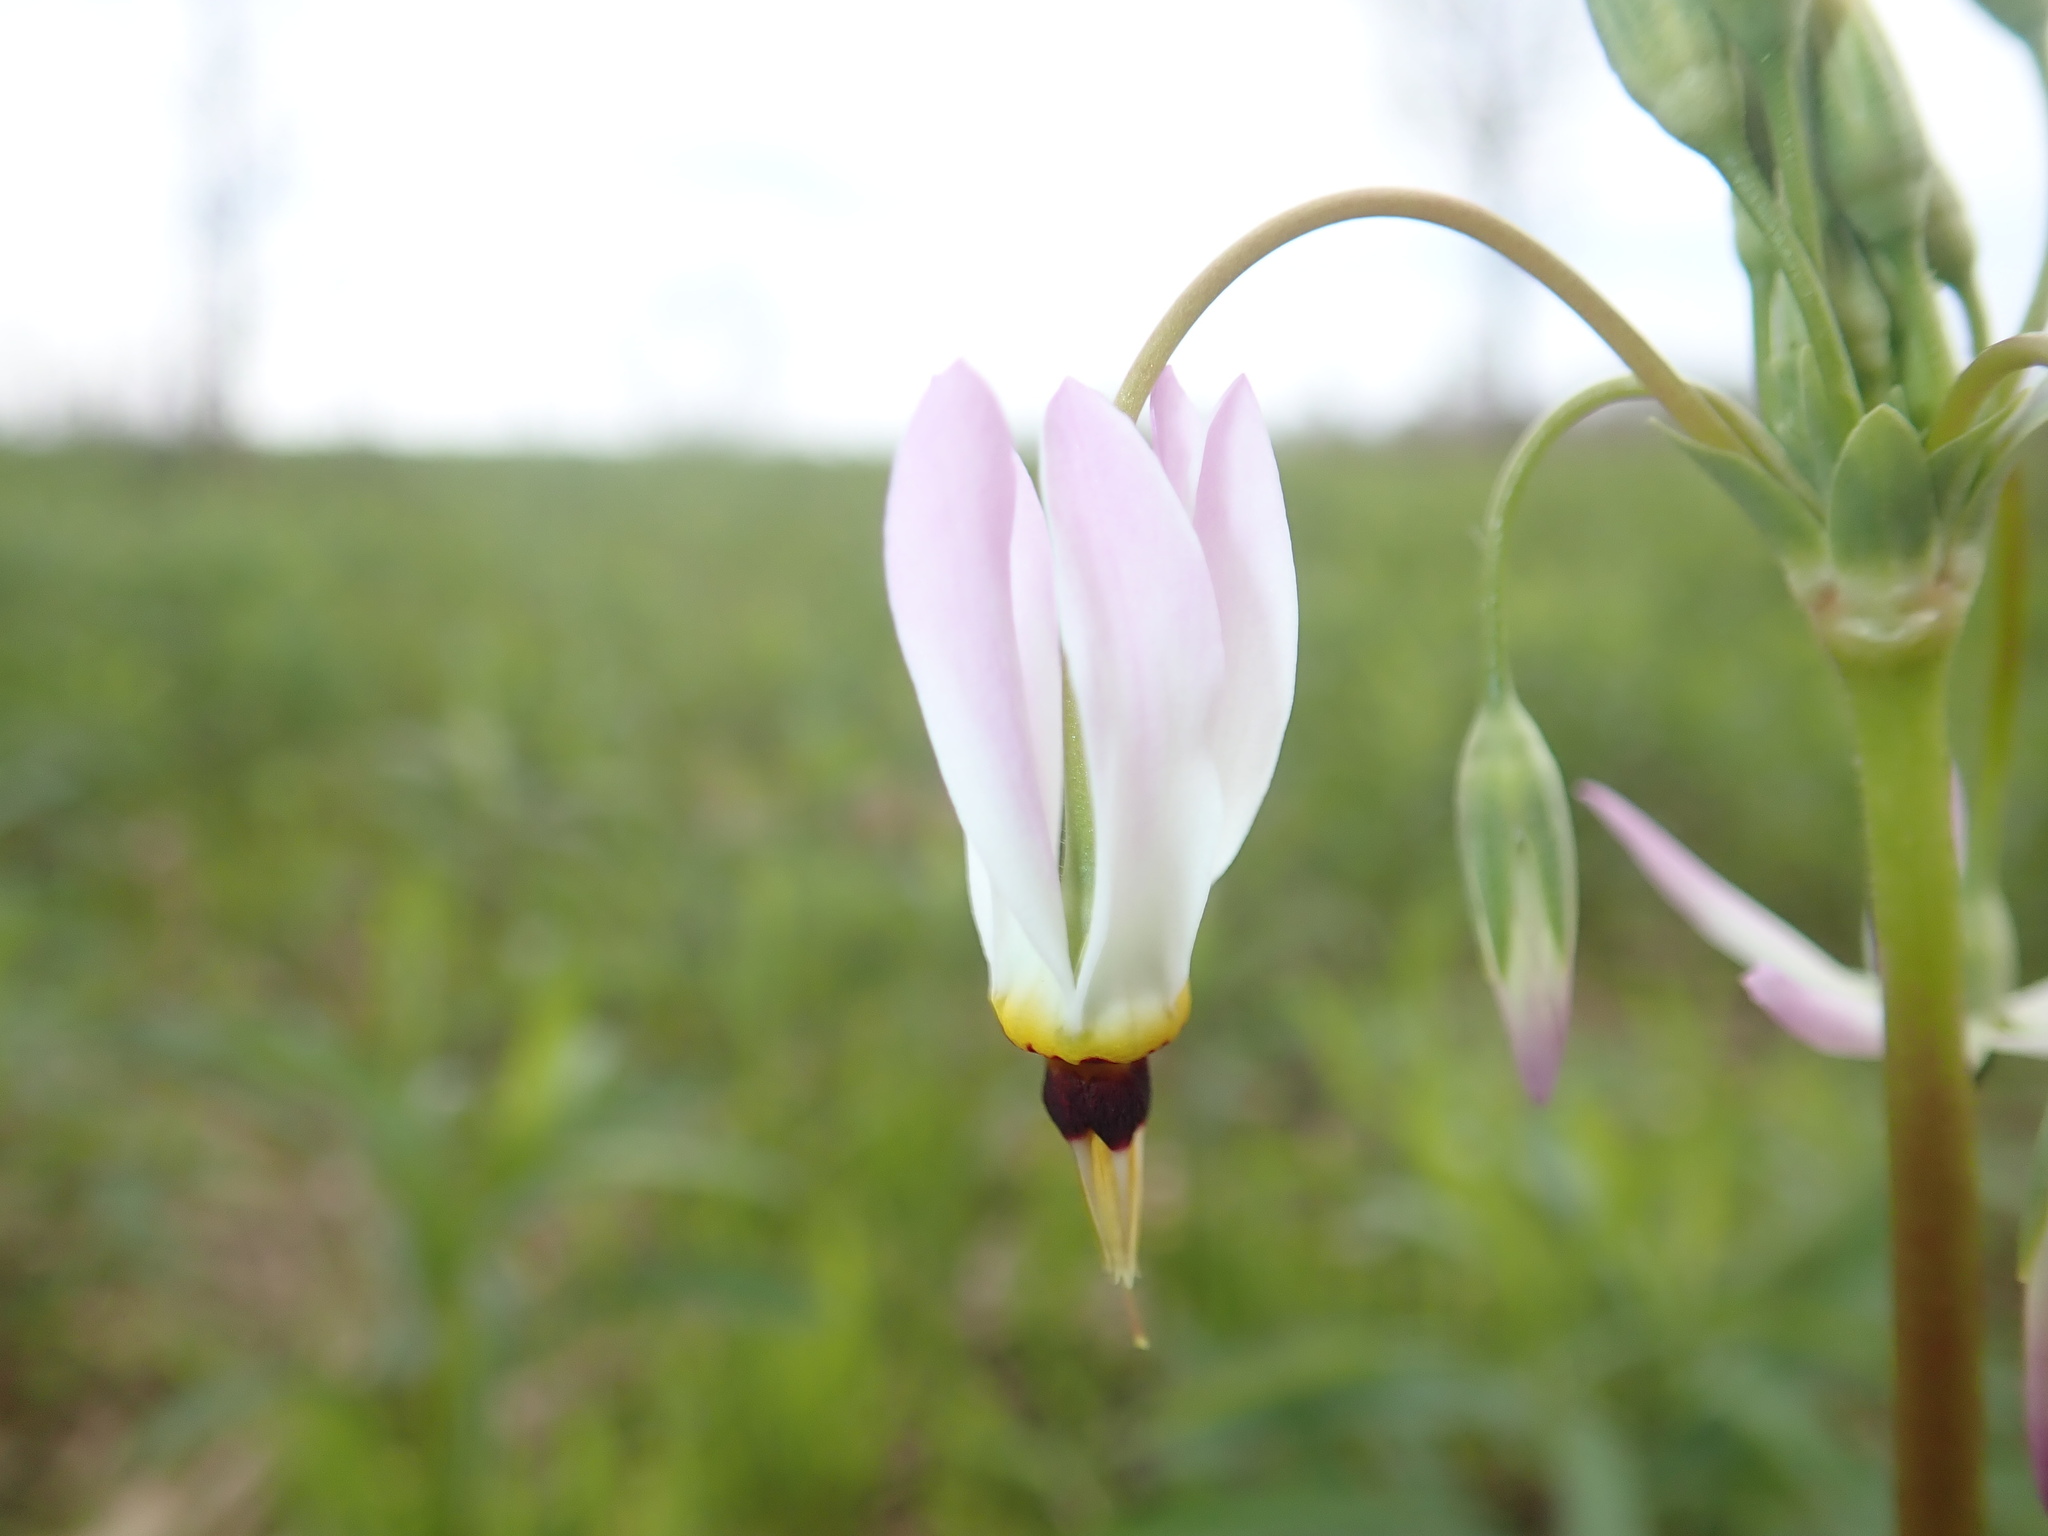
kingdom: Plantae
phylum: Tracheophyta
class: Magnoliopsida
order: Ericales
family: Primulaceae
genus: Dodecatheon
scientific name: Dodecatheon meadia
